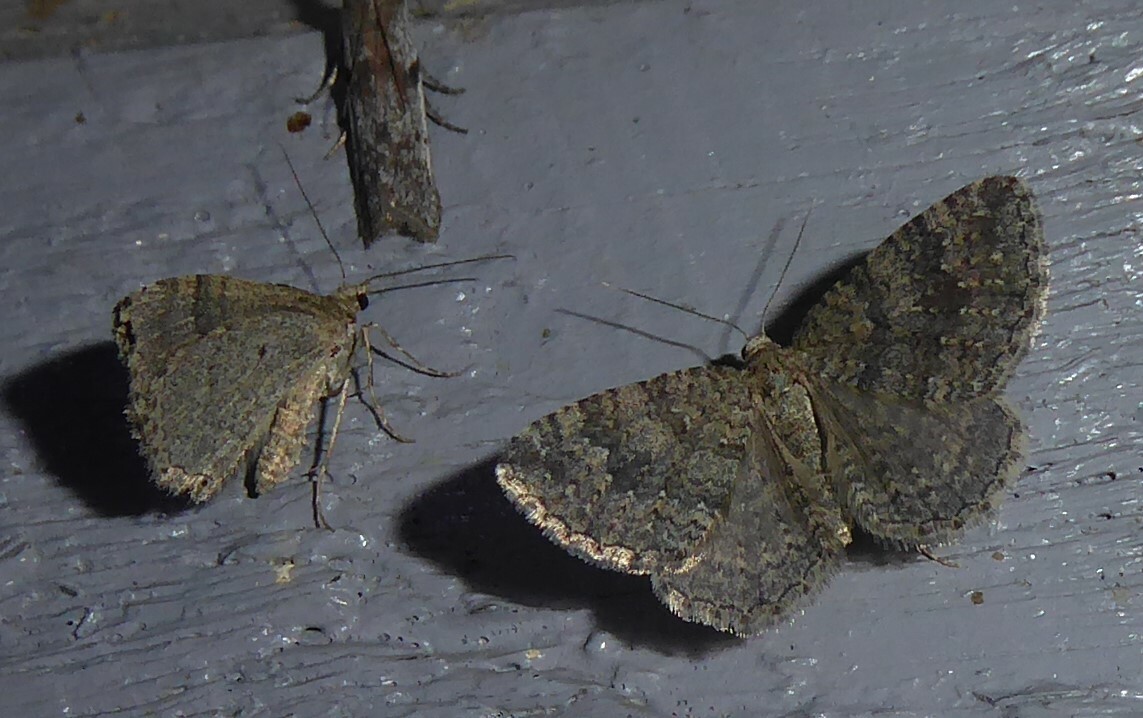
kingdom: Animalia
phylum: Arthropoda
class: Insecta
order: Lepidoptera
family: Geometridae
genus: Helastia
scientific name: Helastia corcularia
